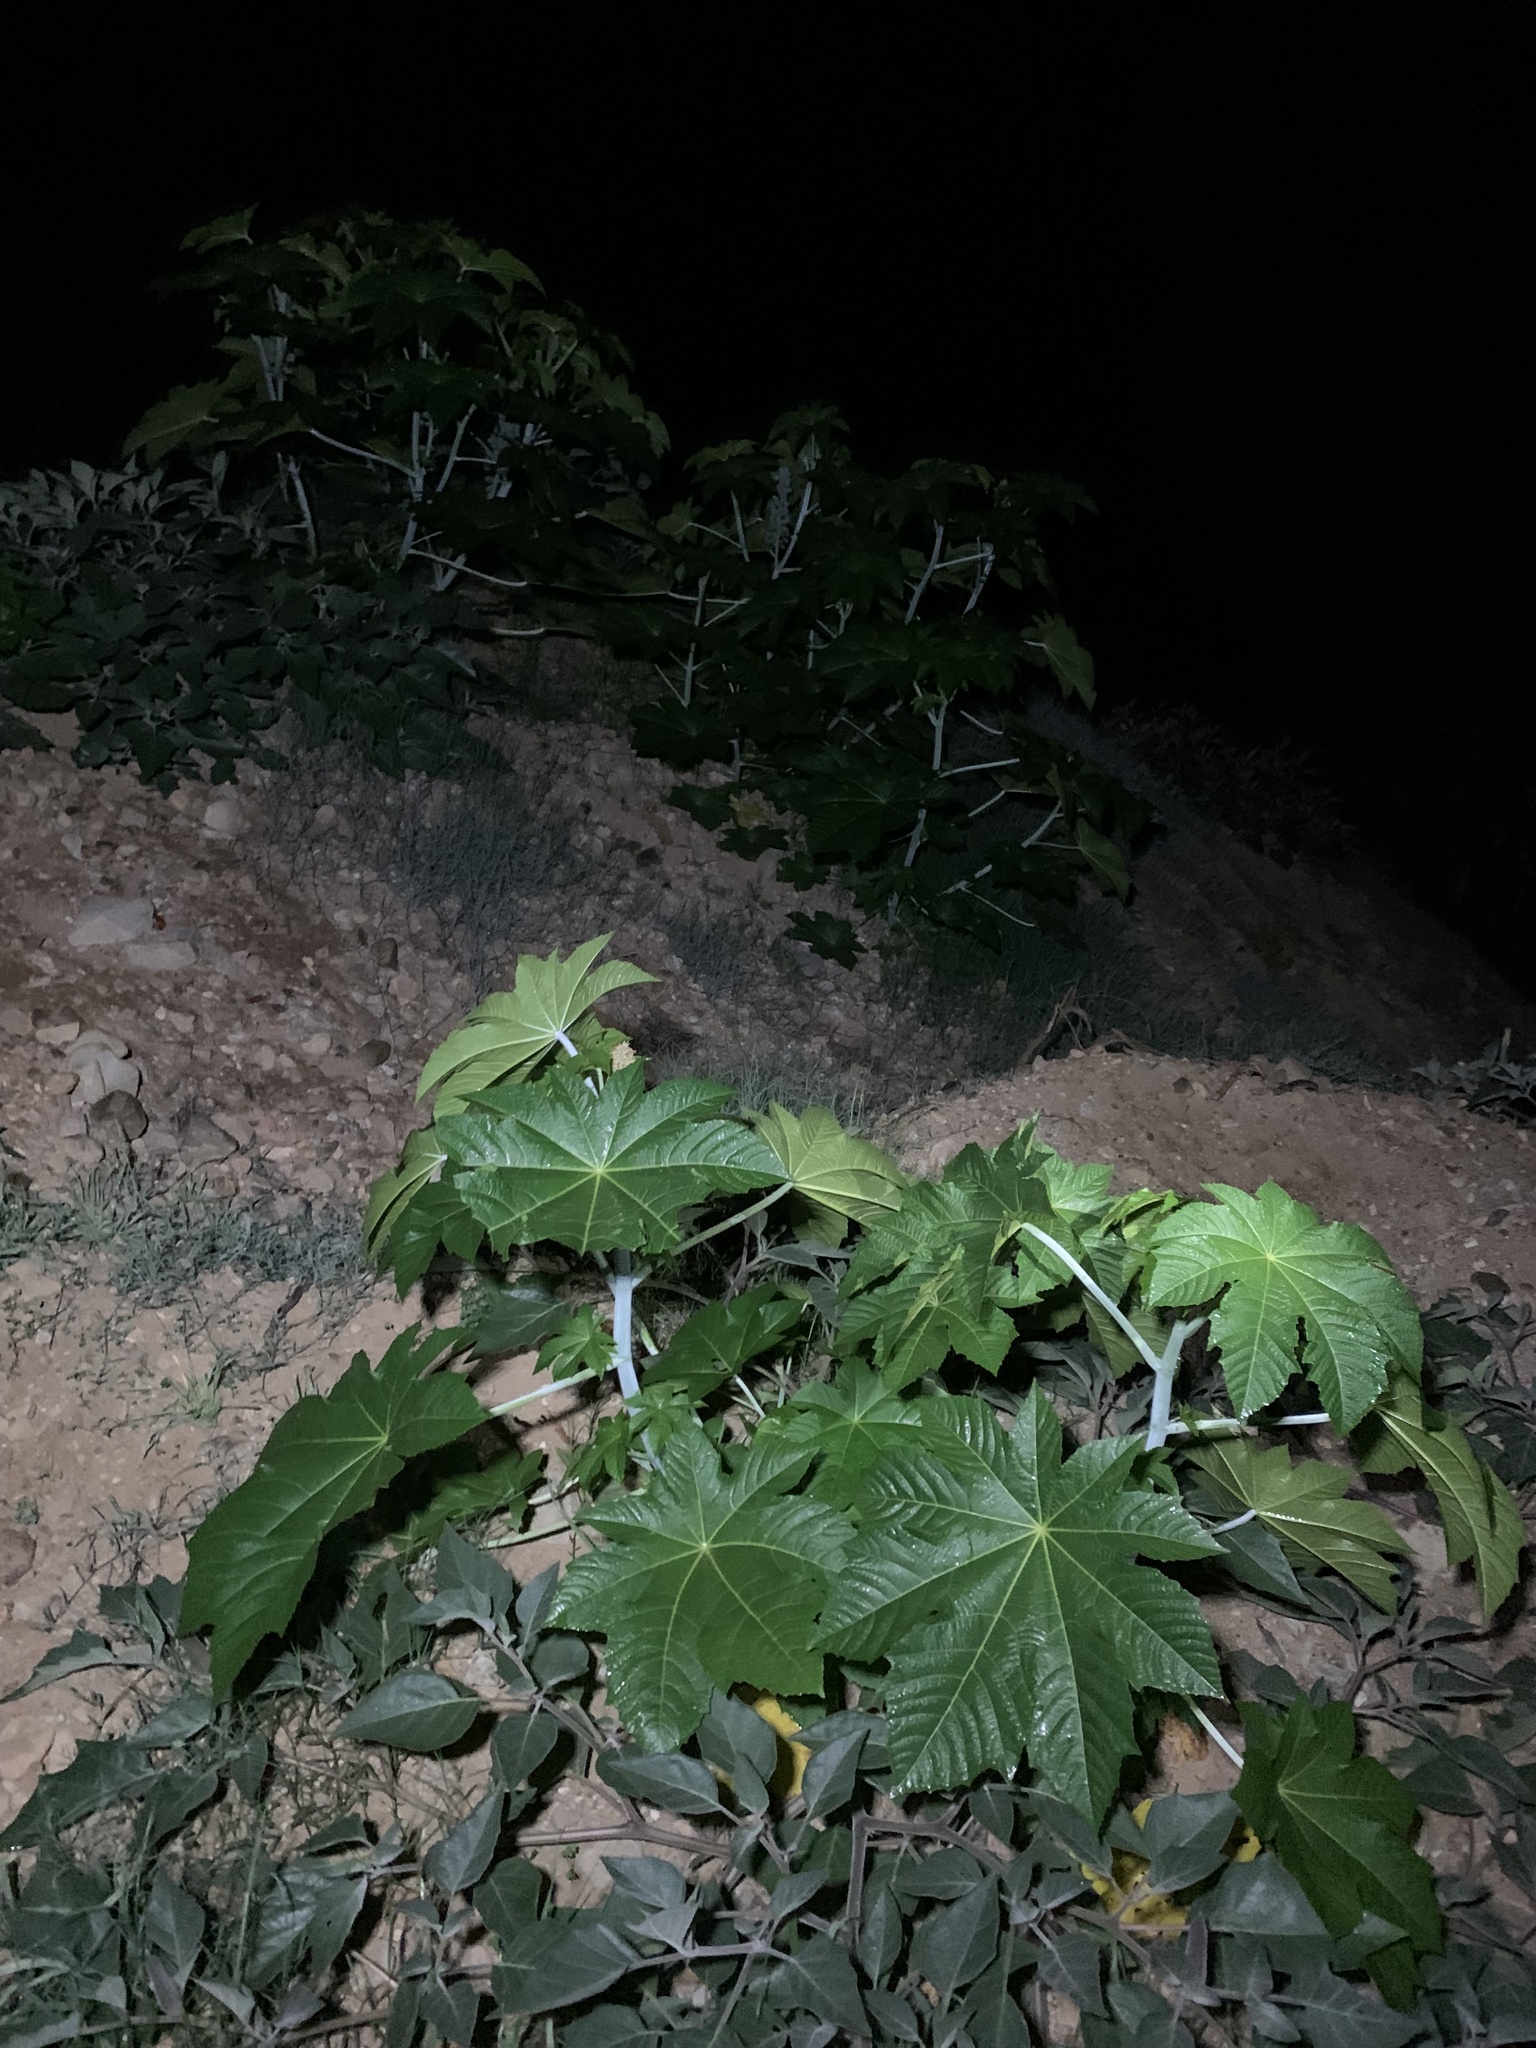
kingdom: Plantae
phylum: Tracheophyta
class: Magnoliopsida
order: Malpighiales
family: Euphorbiaceae
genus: Ricinus
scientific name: Ricinus communis
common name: Castor-oil-plant
